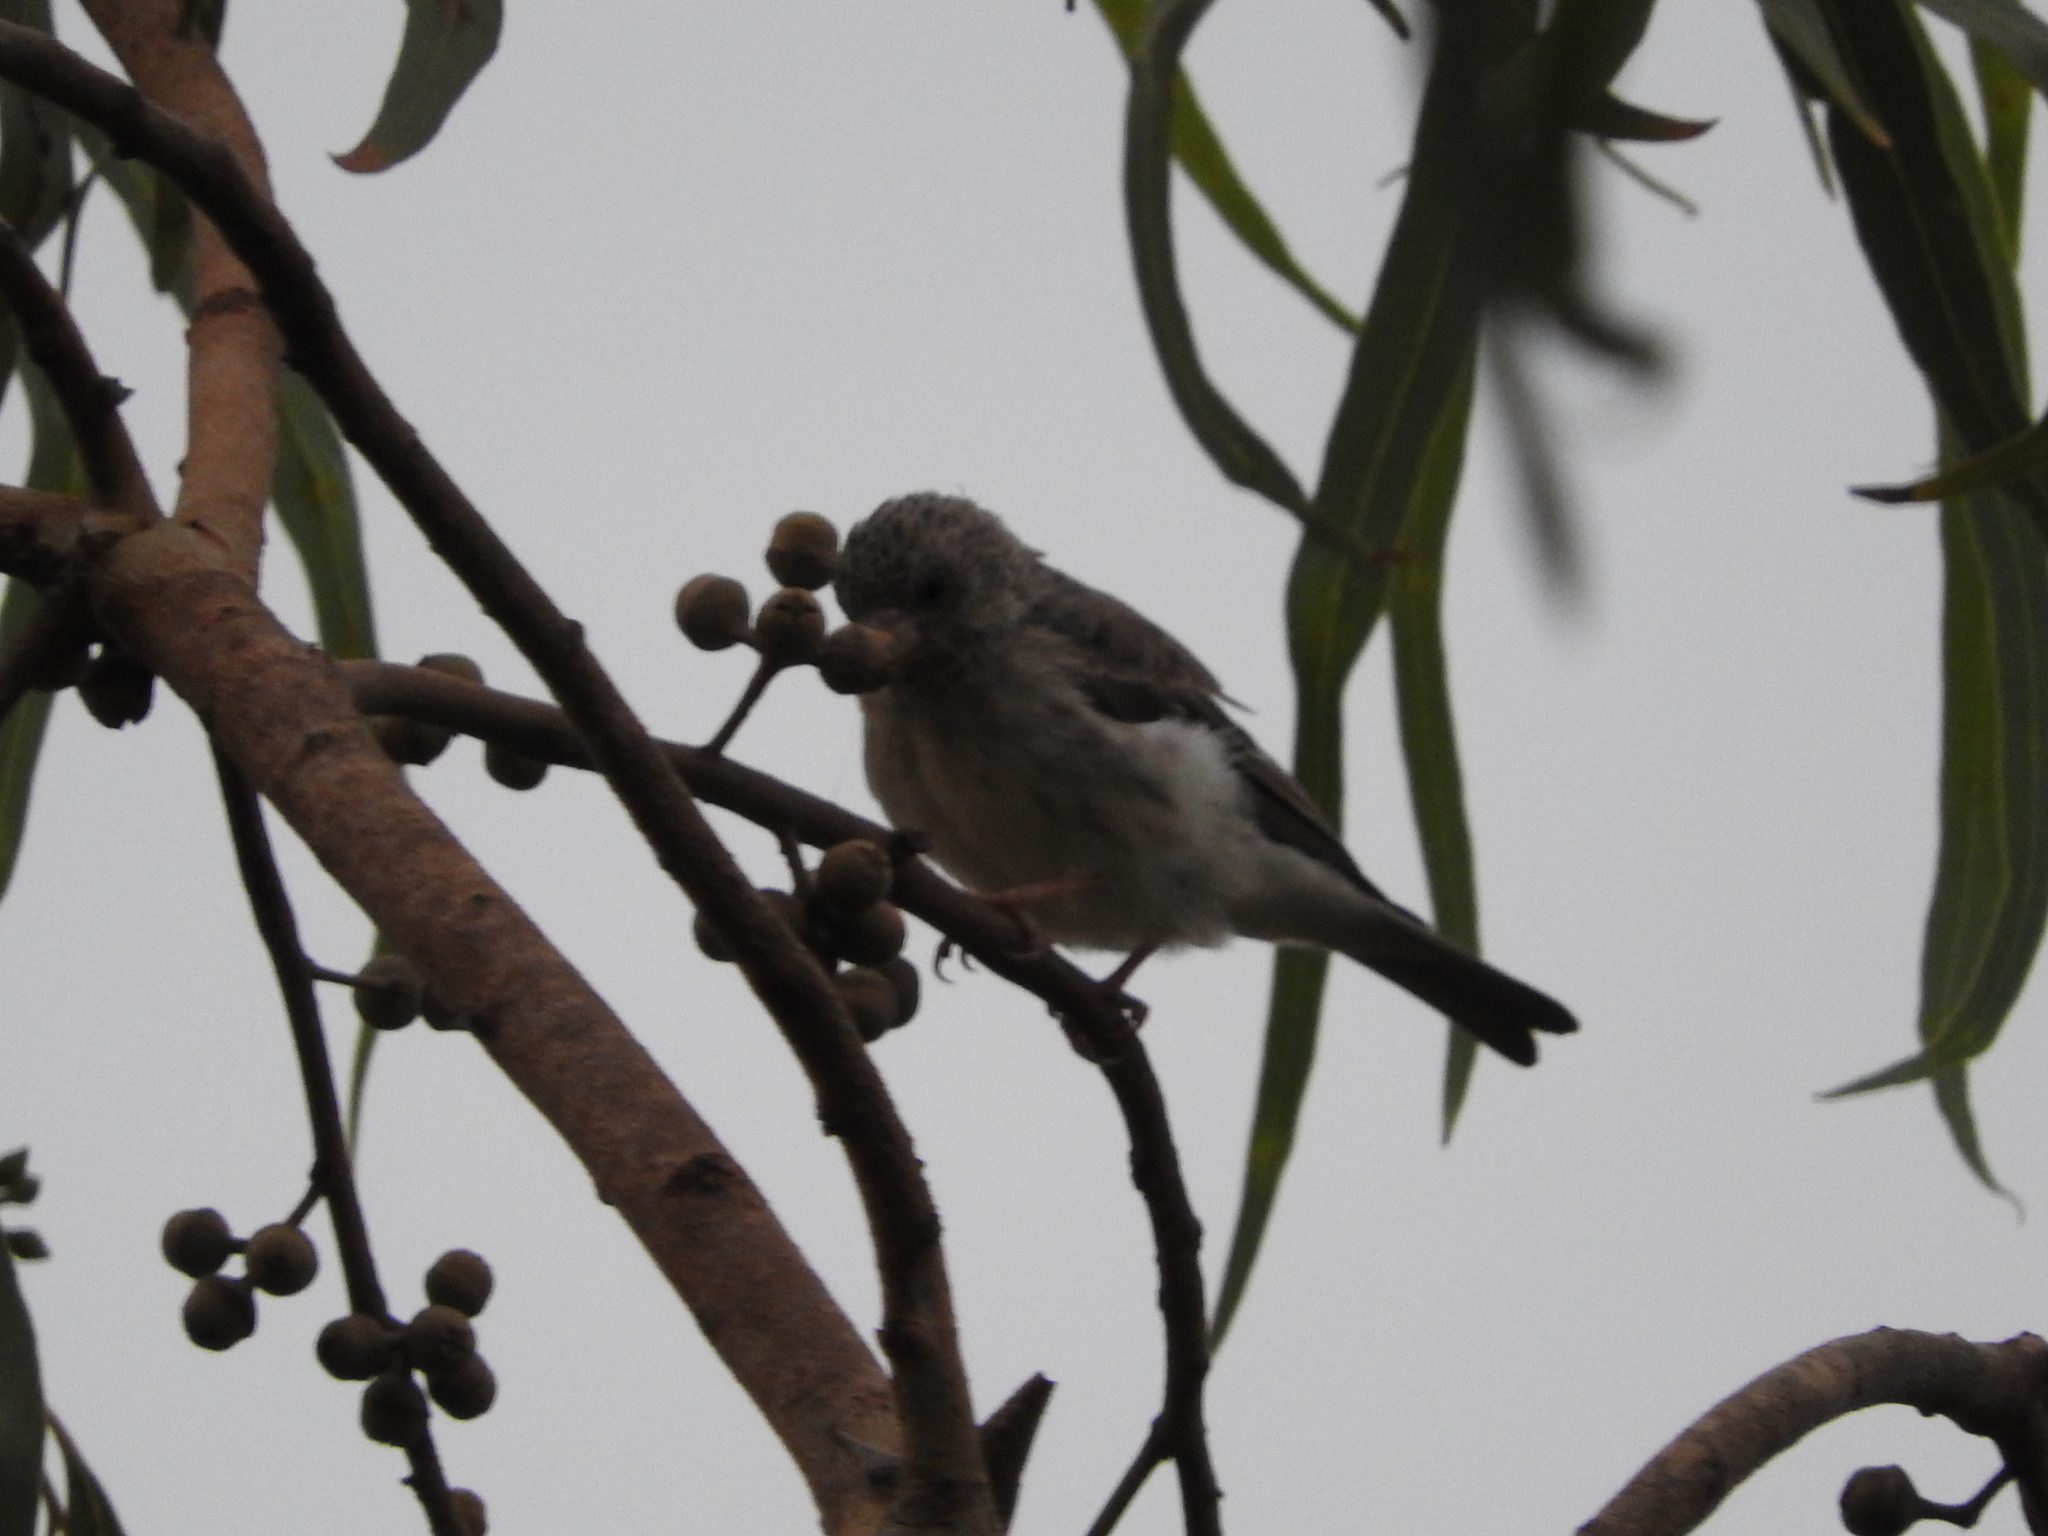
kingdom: Animalia
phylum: Chordata
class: Aves
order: Passeriformes
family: Fringillidae
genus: Crithagra
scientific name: Crithagra leucopygia
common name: White-rumped seedeater
